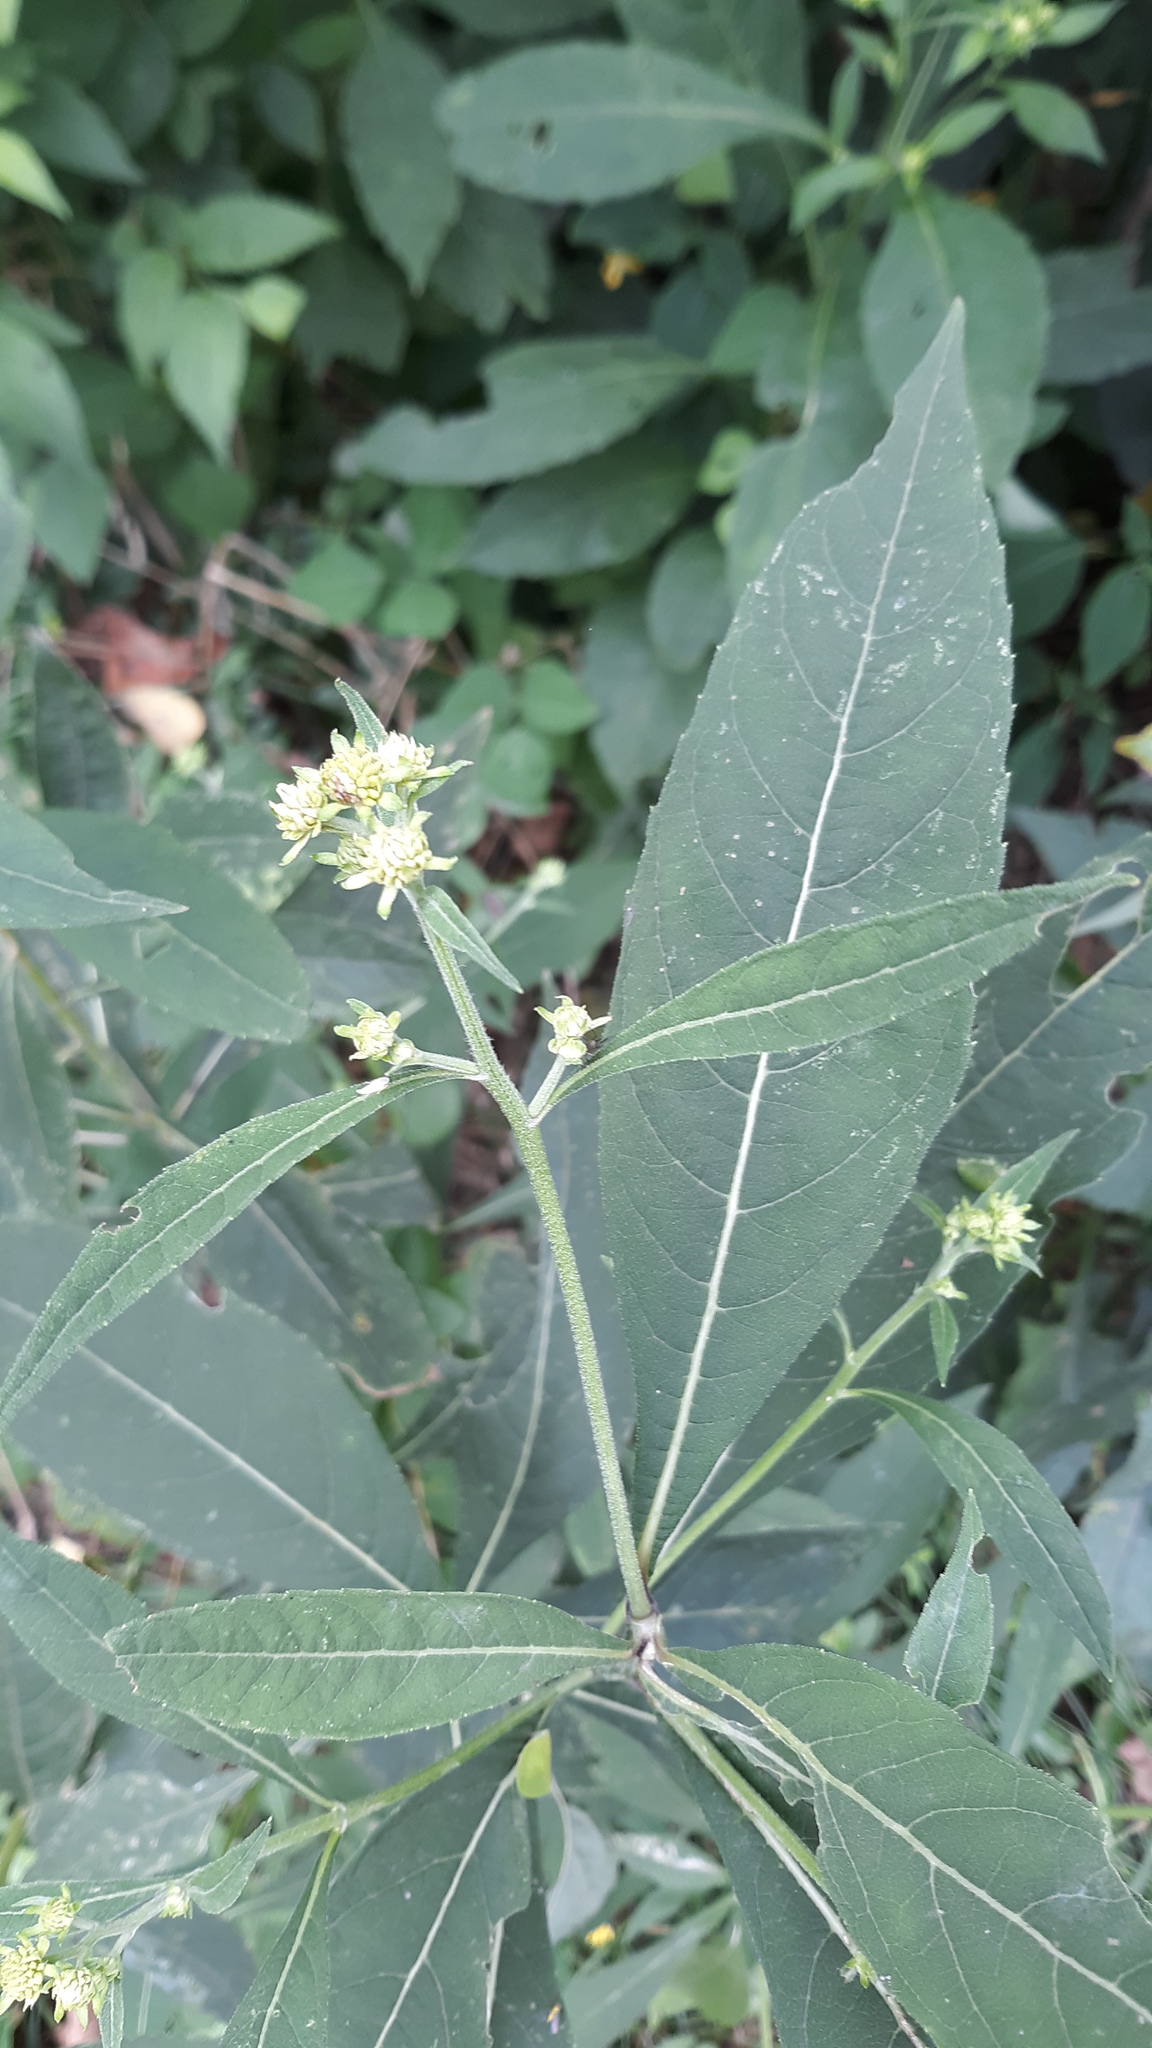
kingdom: Plantae
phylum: Tracheophyta
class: Magnoliopsida
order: Asterales
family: Asteraceae
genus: Verbesina
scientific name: Verbesina alternifolia
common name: Wingstem
